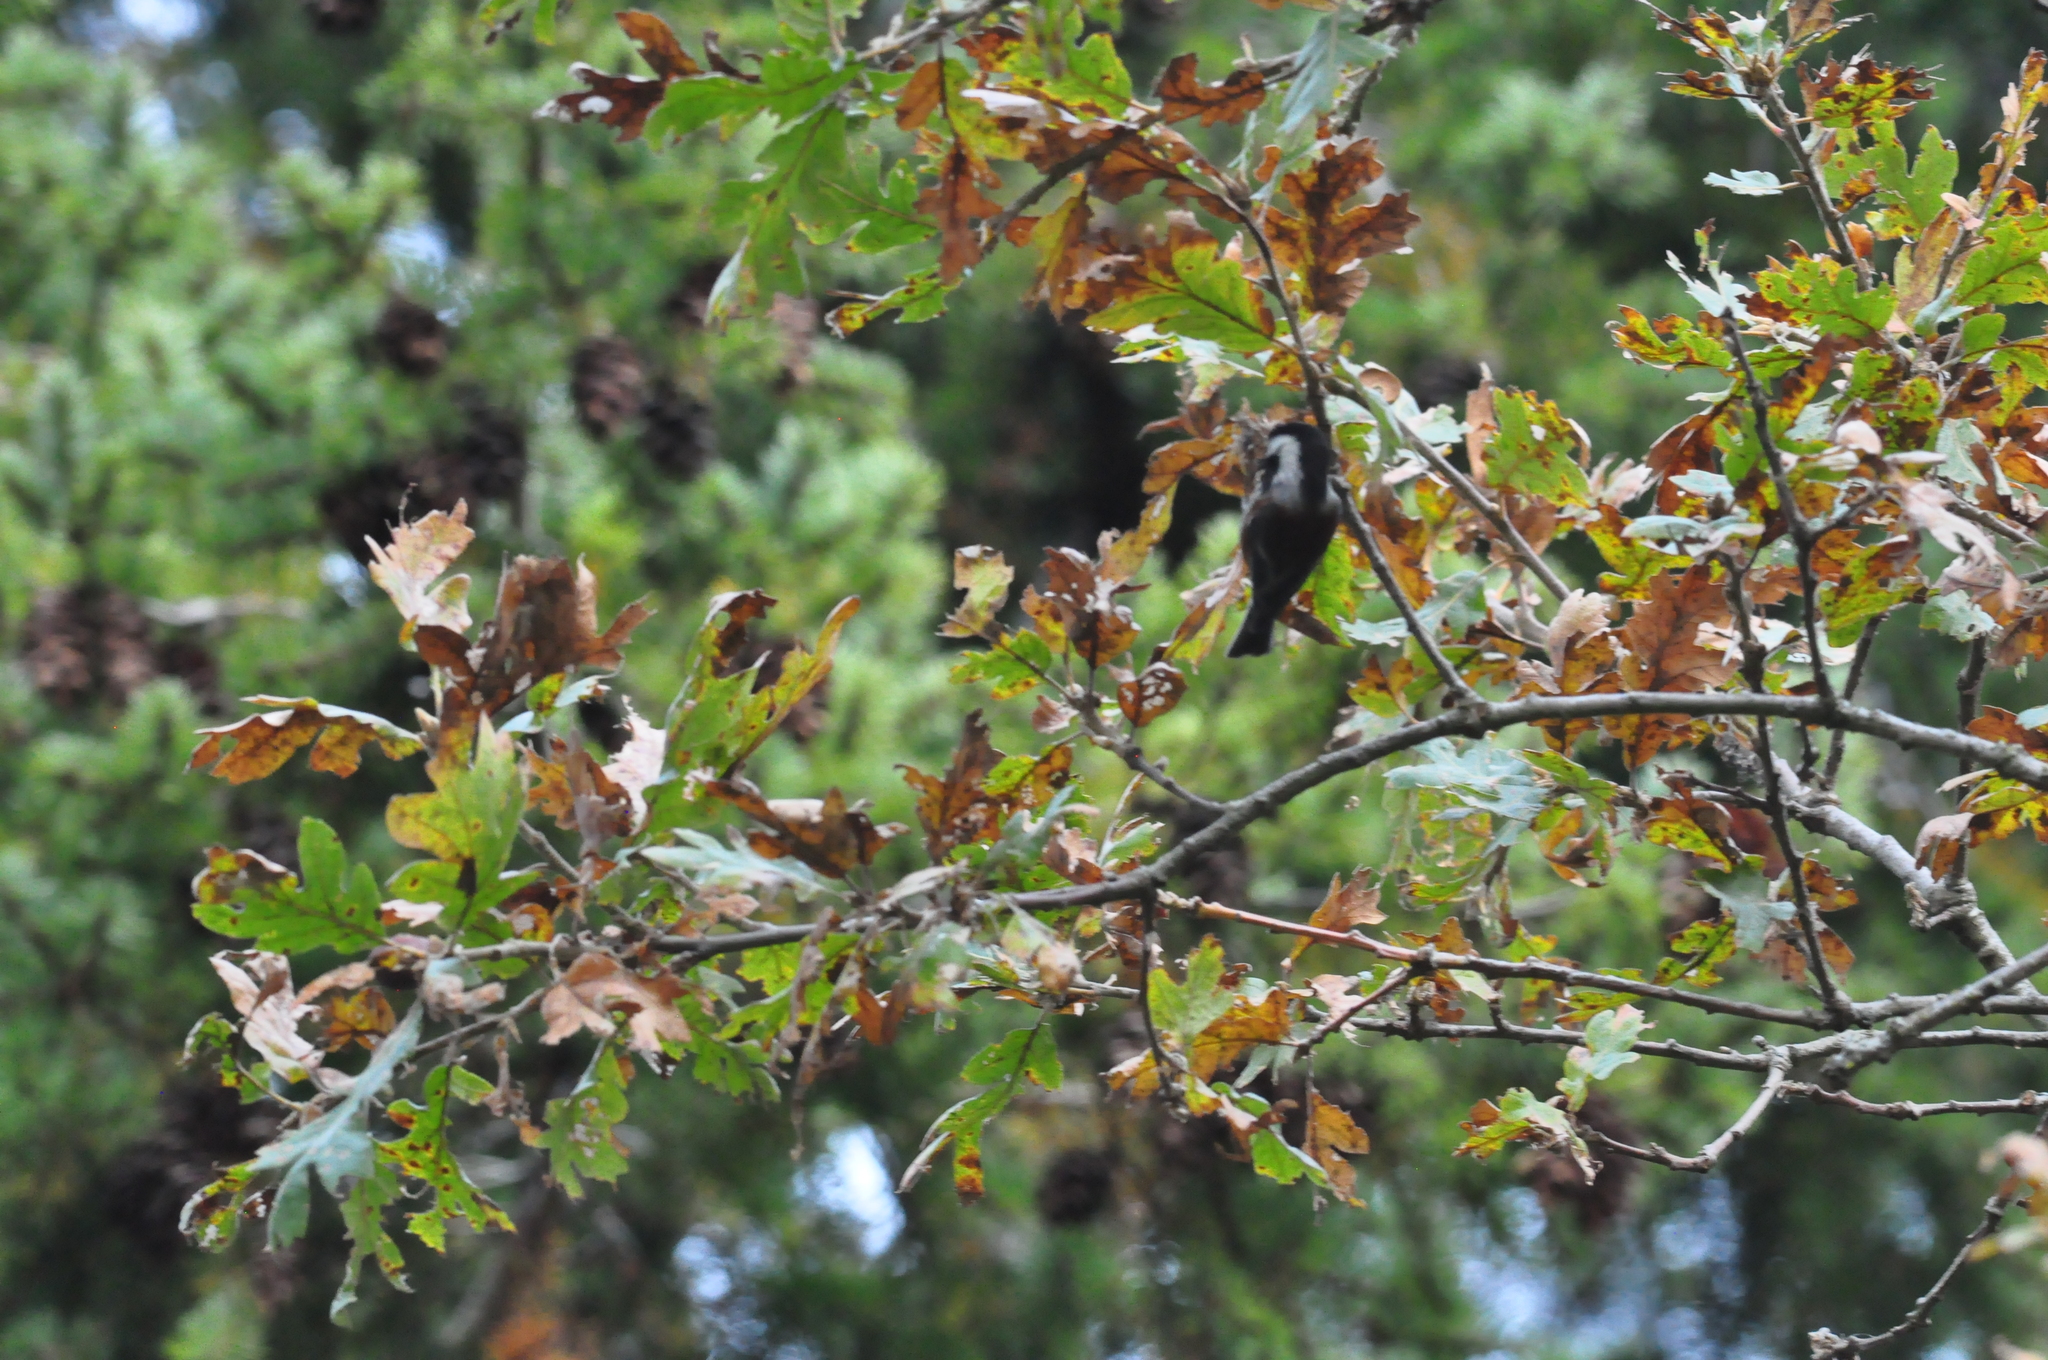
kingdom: Animalia
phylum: Chordata
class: Aves
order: Passeriformes
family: Paridae
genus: Poecile
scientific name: Poecile rufescens
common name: Chestnut-backed chickadee
